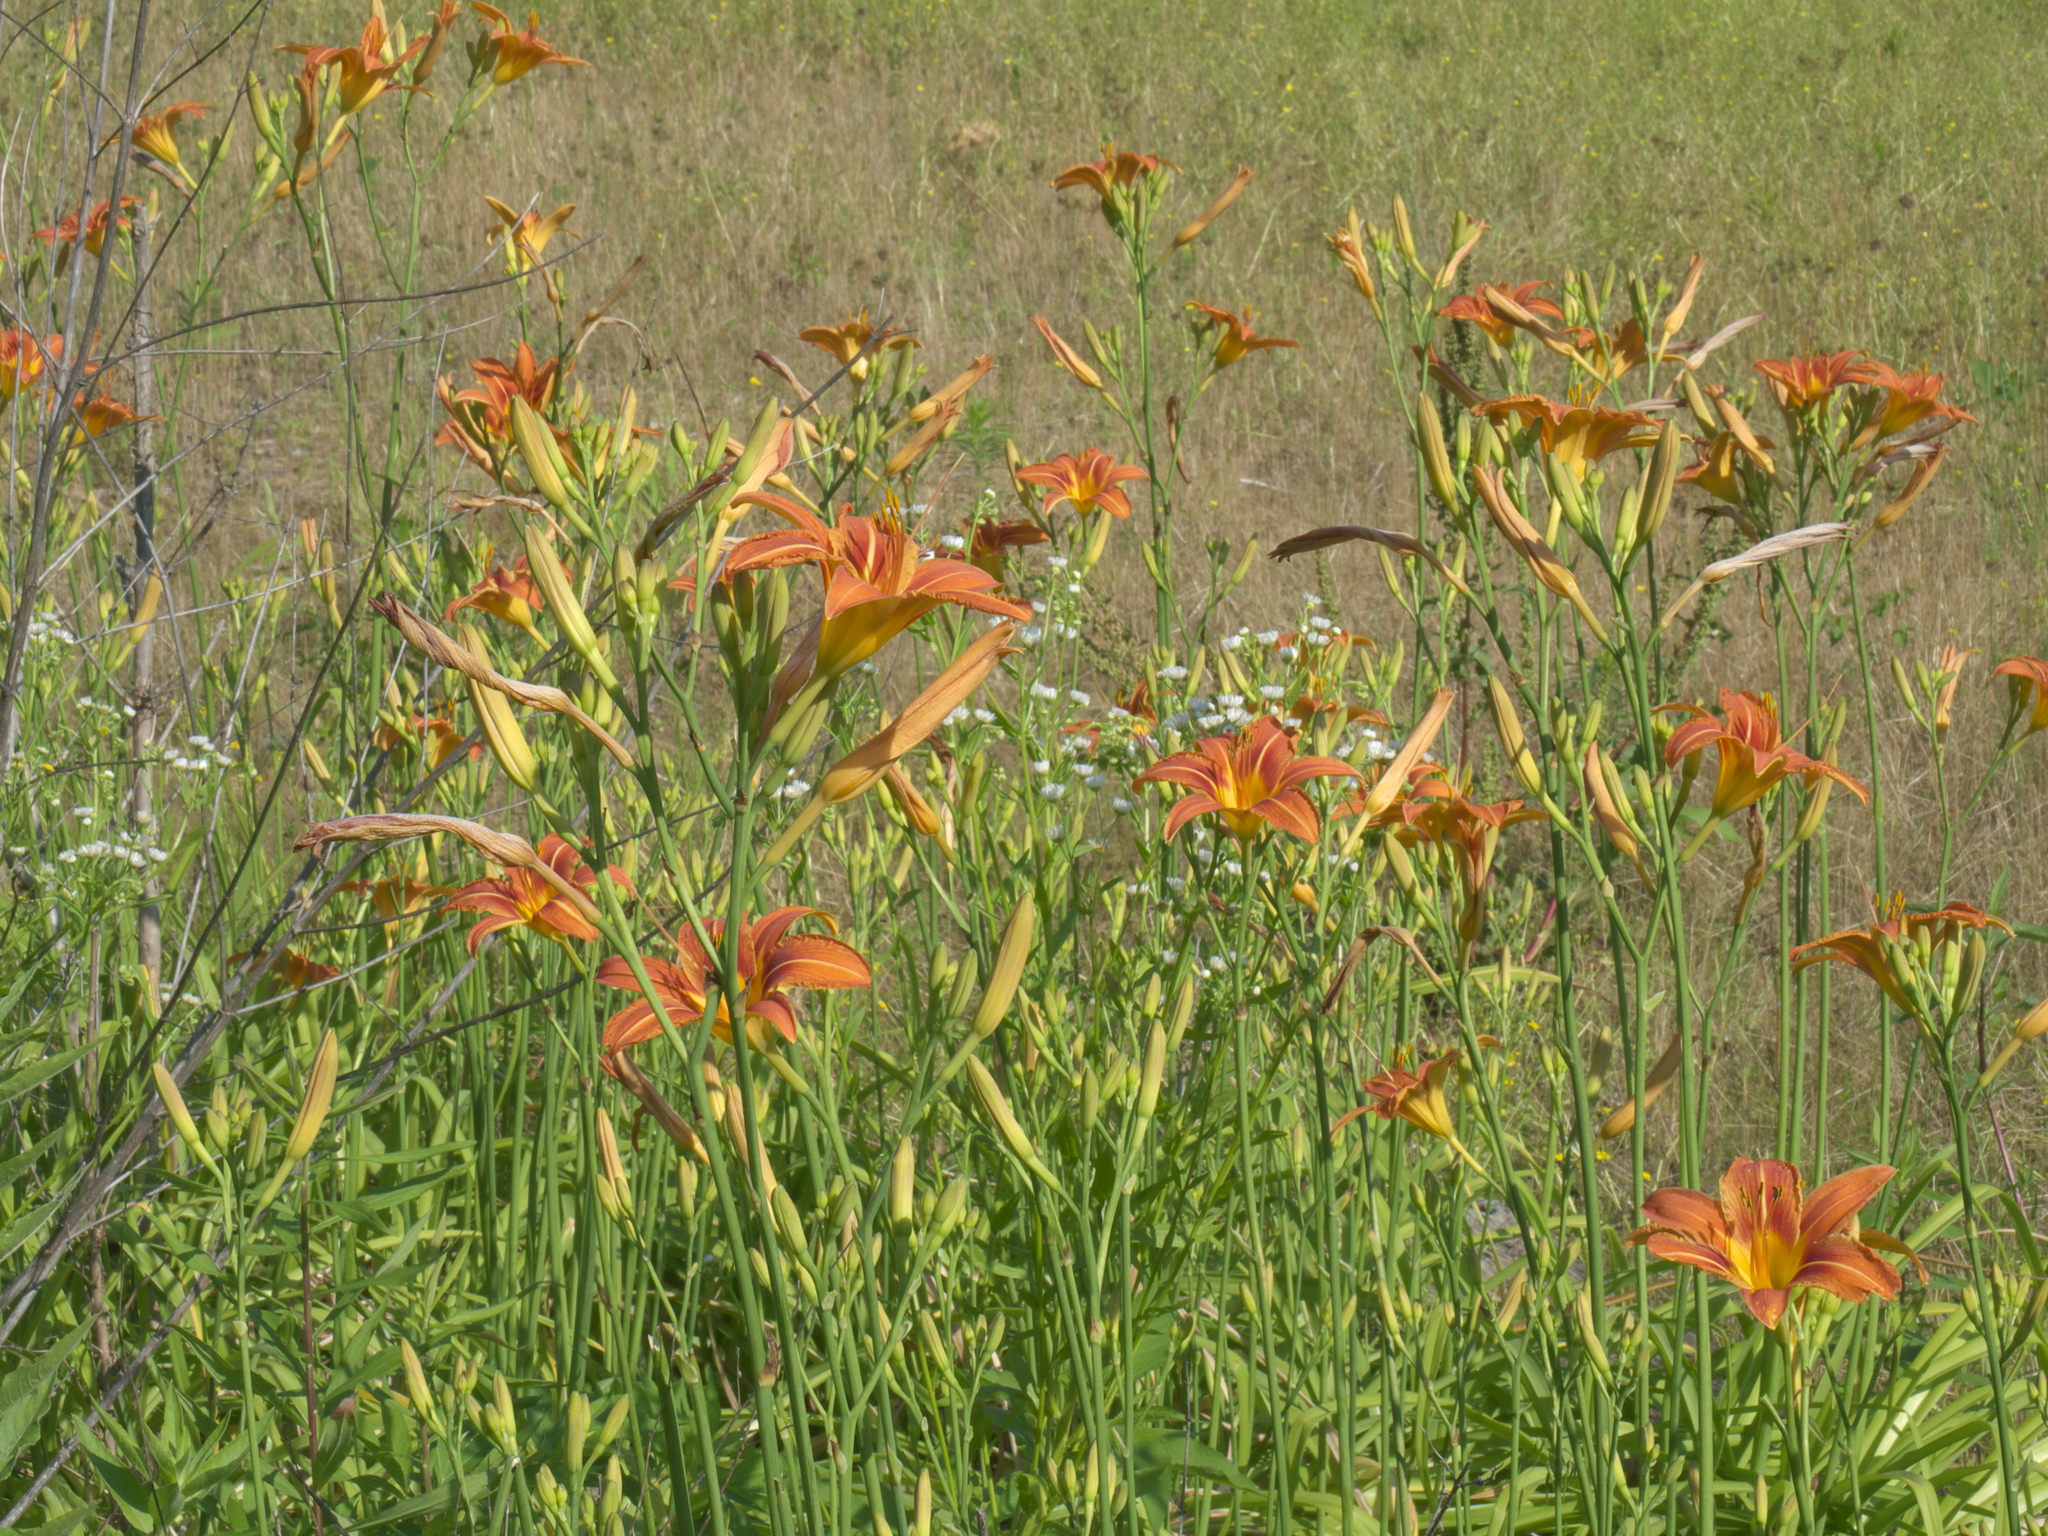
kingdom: Plantae
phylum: Tracheophyta
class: Liliopsida
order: Asparagales
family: Asphodelaceae
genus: Hemerocallis
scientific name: Hemerocallis fulva
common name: Orange day-lily
